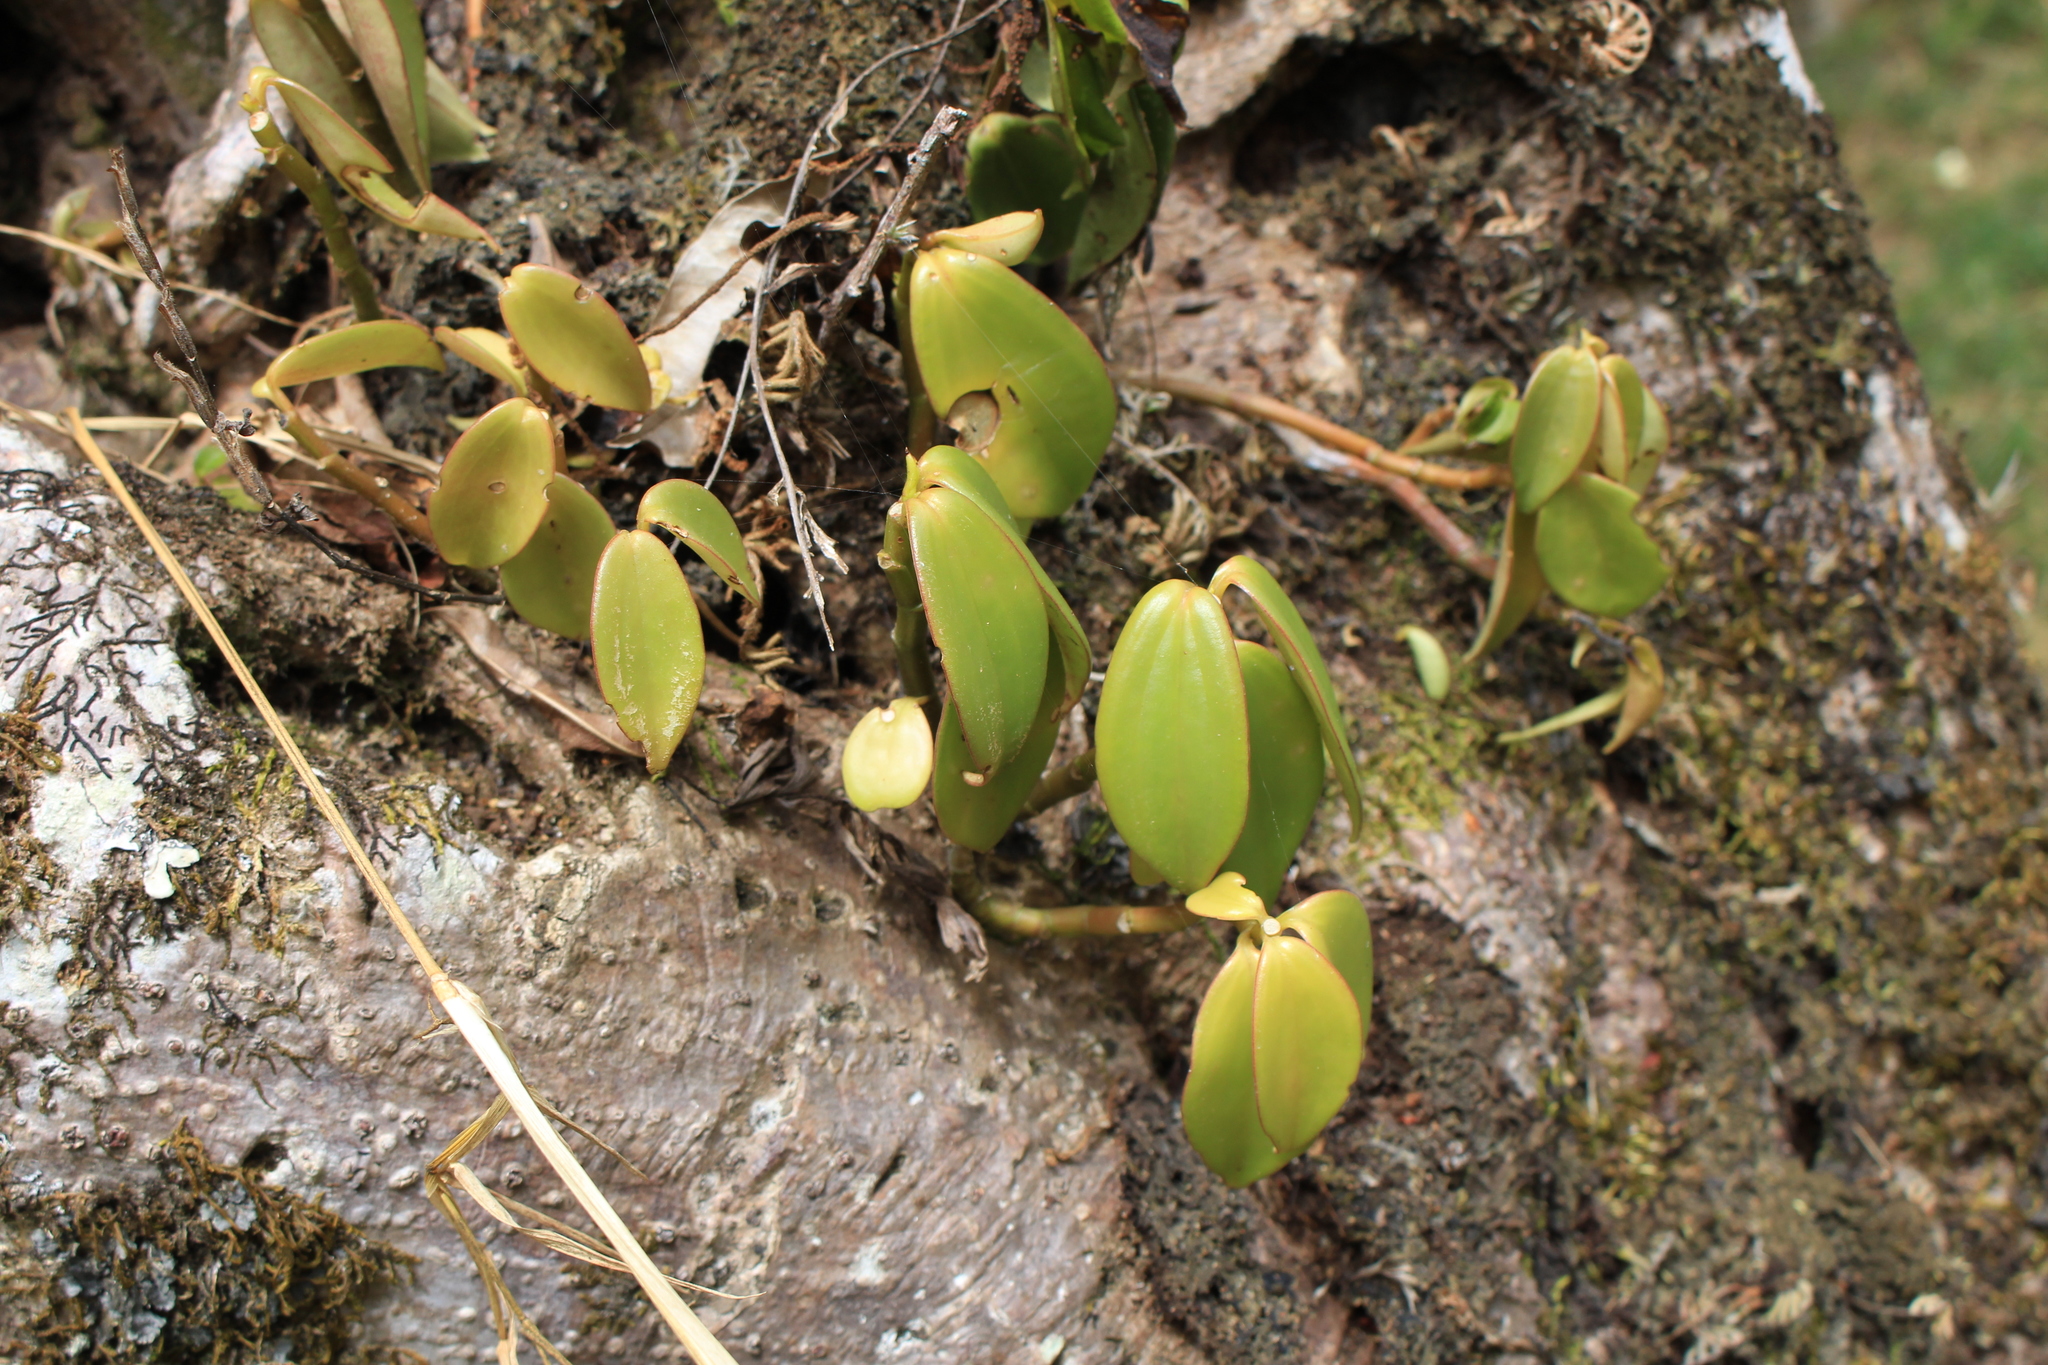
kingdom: Plantae
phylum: Tracheophyta
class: Magnoliopsida
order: Piperales
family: Piperaceae
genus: Peperomia
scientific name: Peperomia san-joseana
